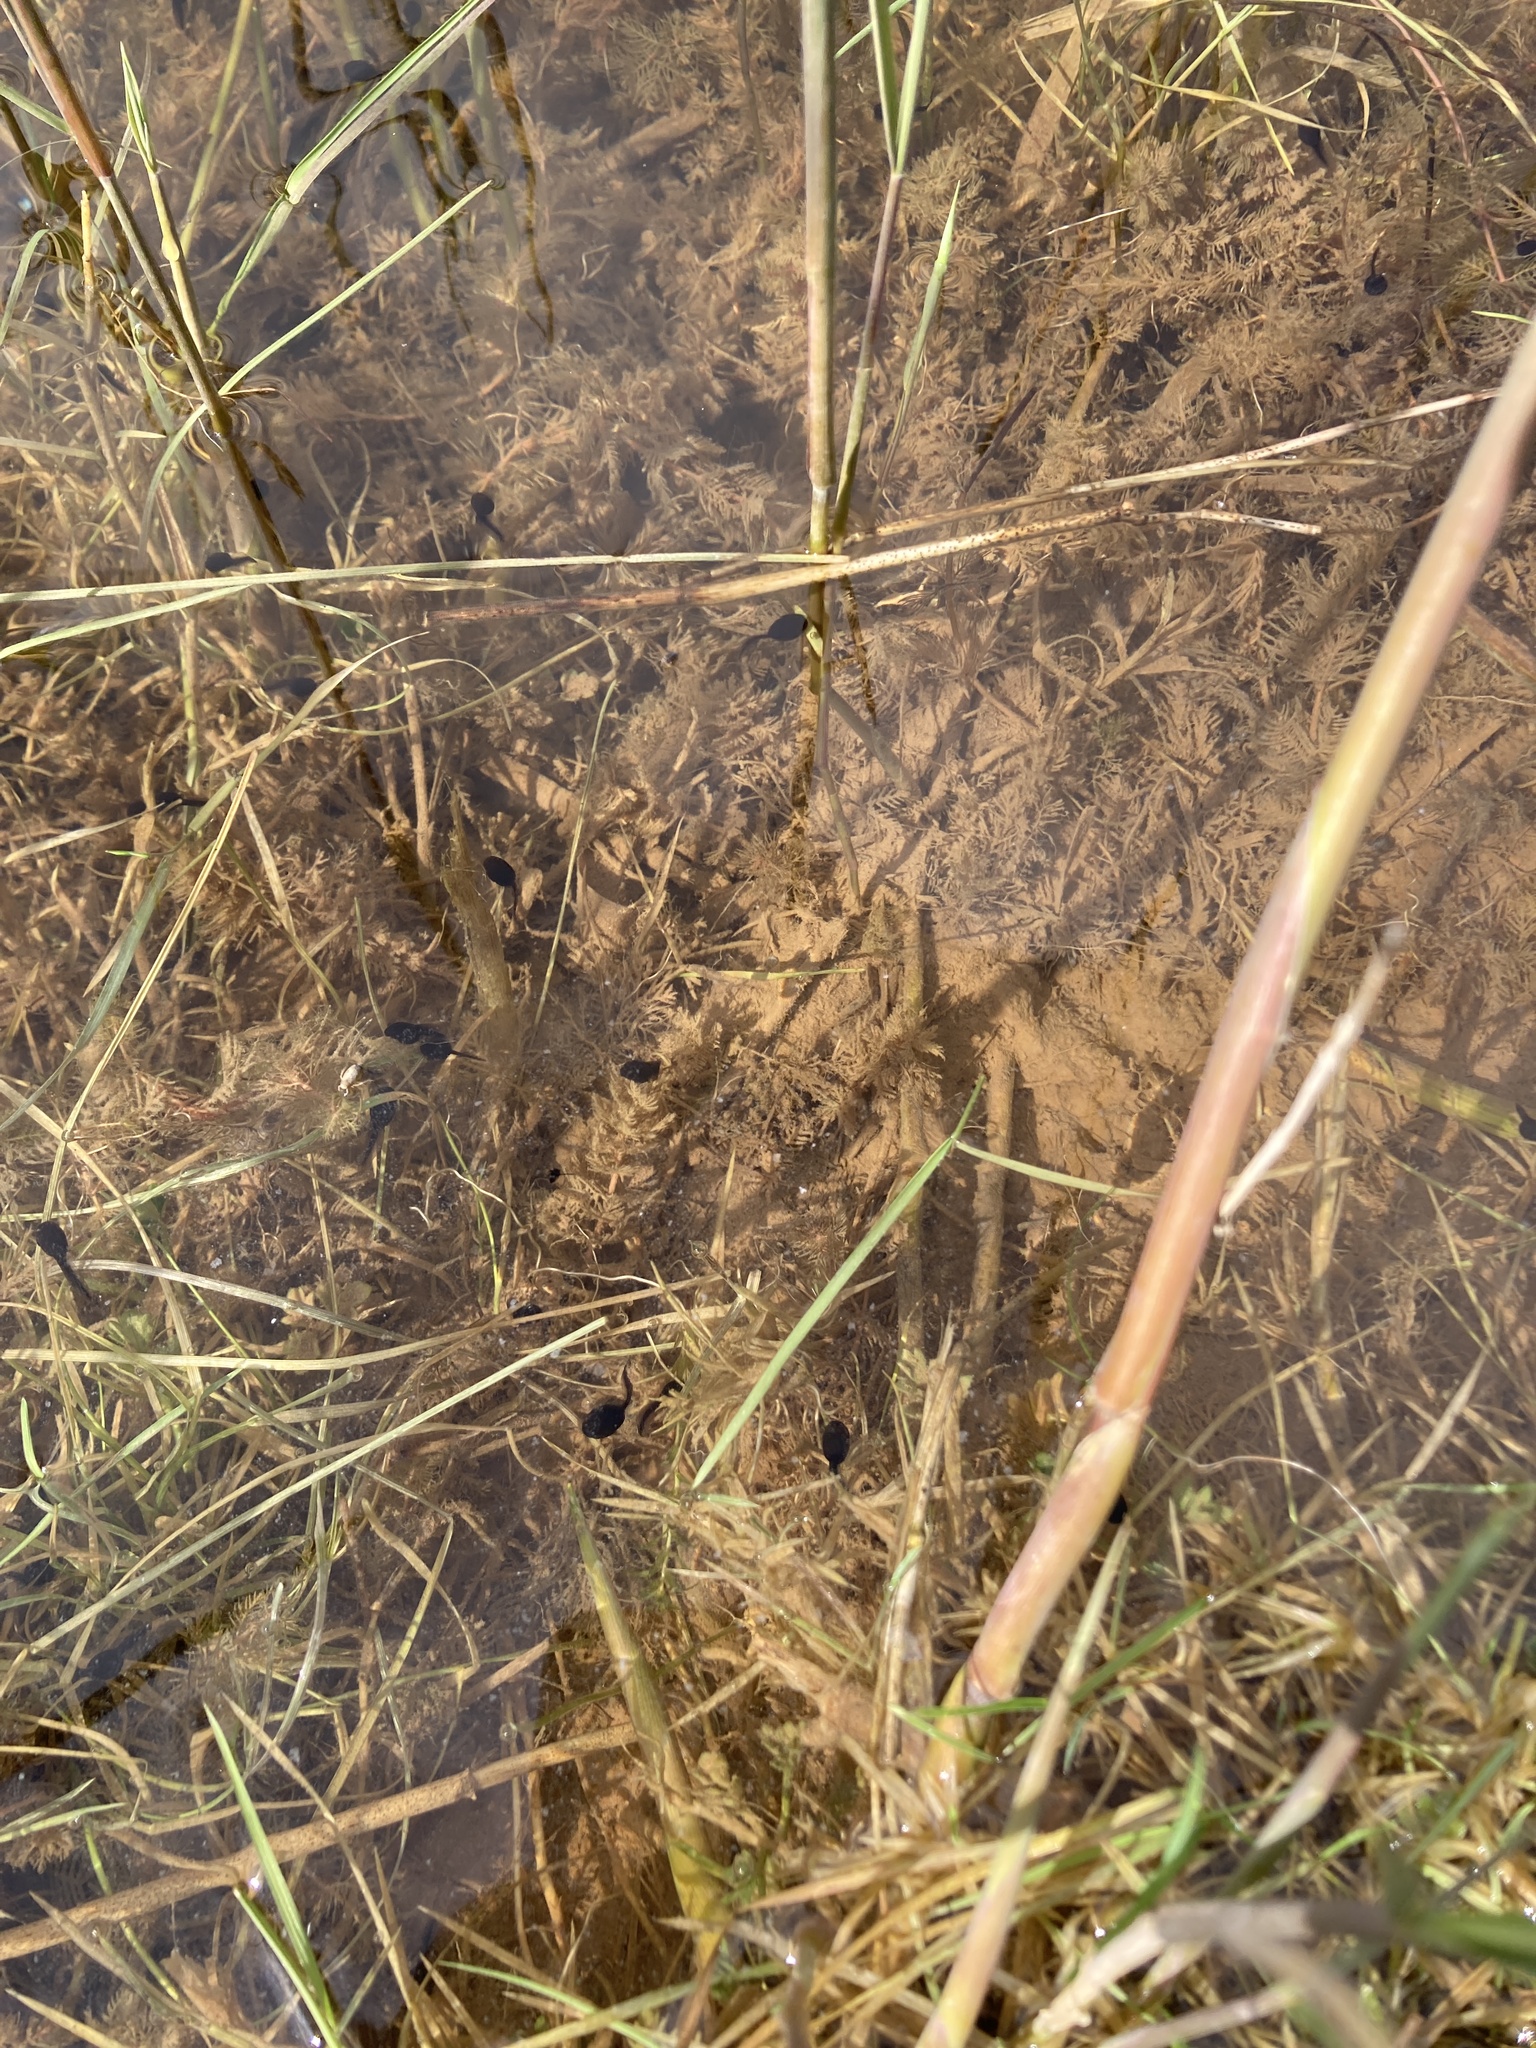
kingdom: Animalia
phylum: Chordata
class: Amphibia
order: Anura
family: Bufonidae
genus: Bufo
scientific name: Bufo bufo
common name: Common toad
